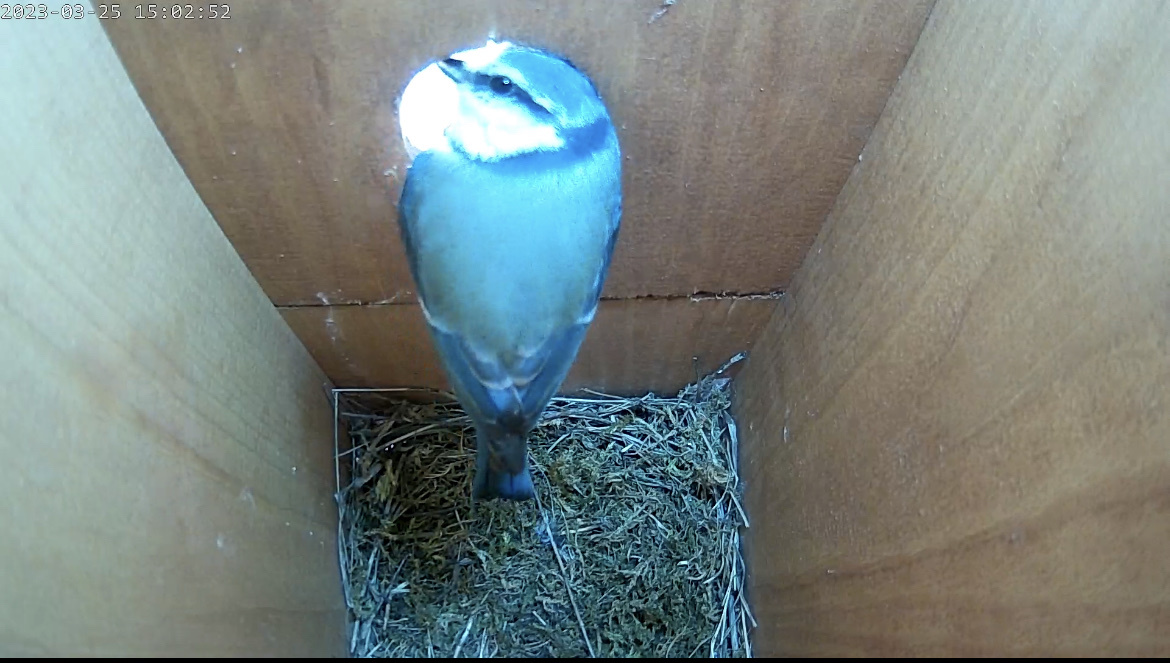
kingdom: Animalia
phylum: Chordata
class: Aves
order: Passeriformes
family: Paridae
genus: Cyanistes
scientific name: Cyanistes caeruleus
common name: Eurasian blue tit
